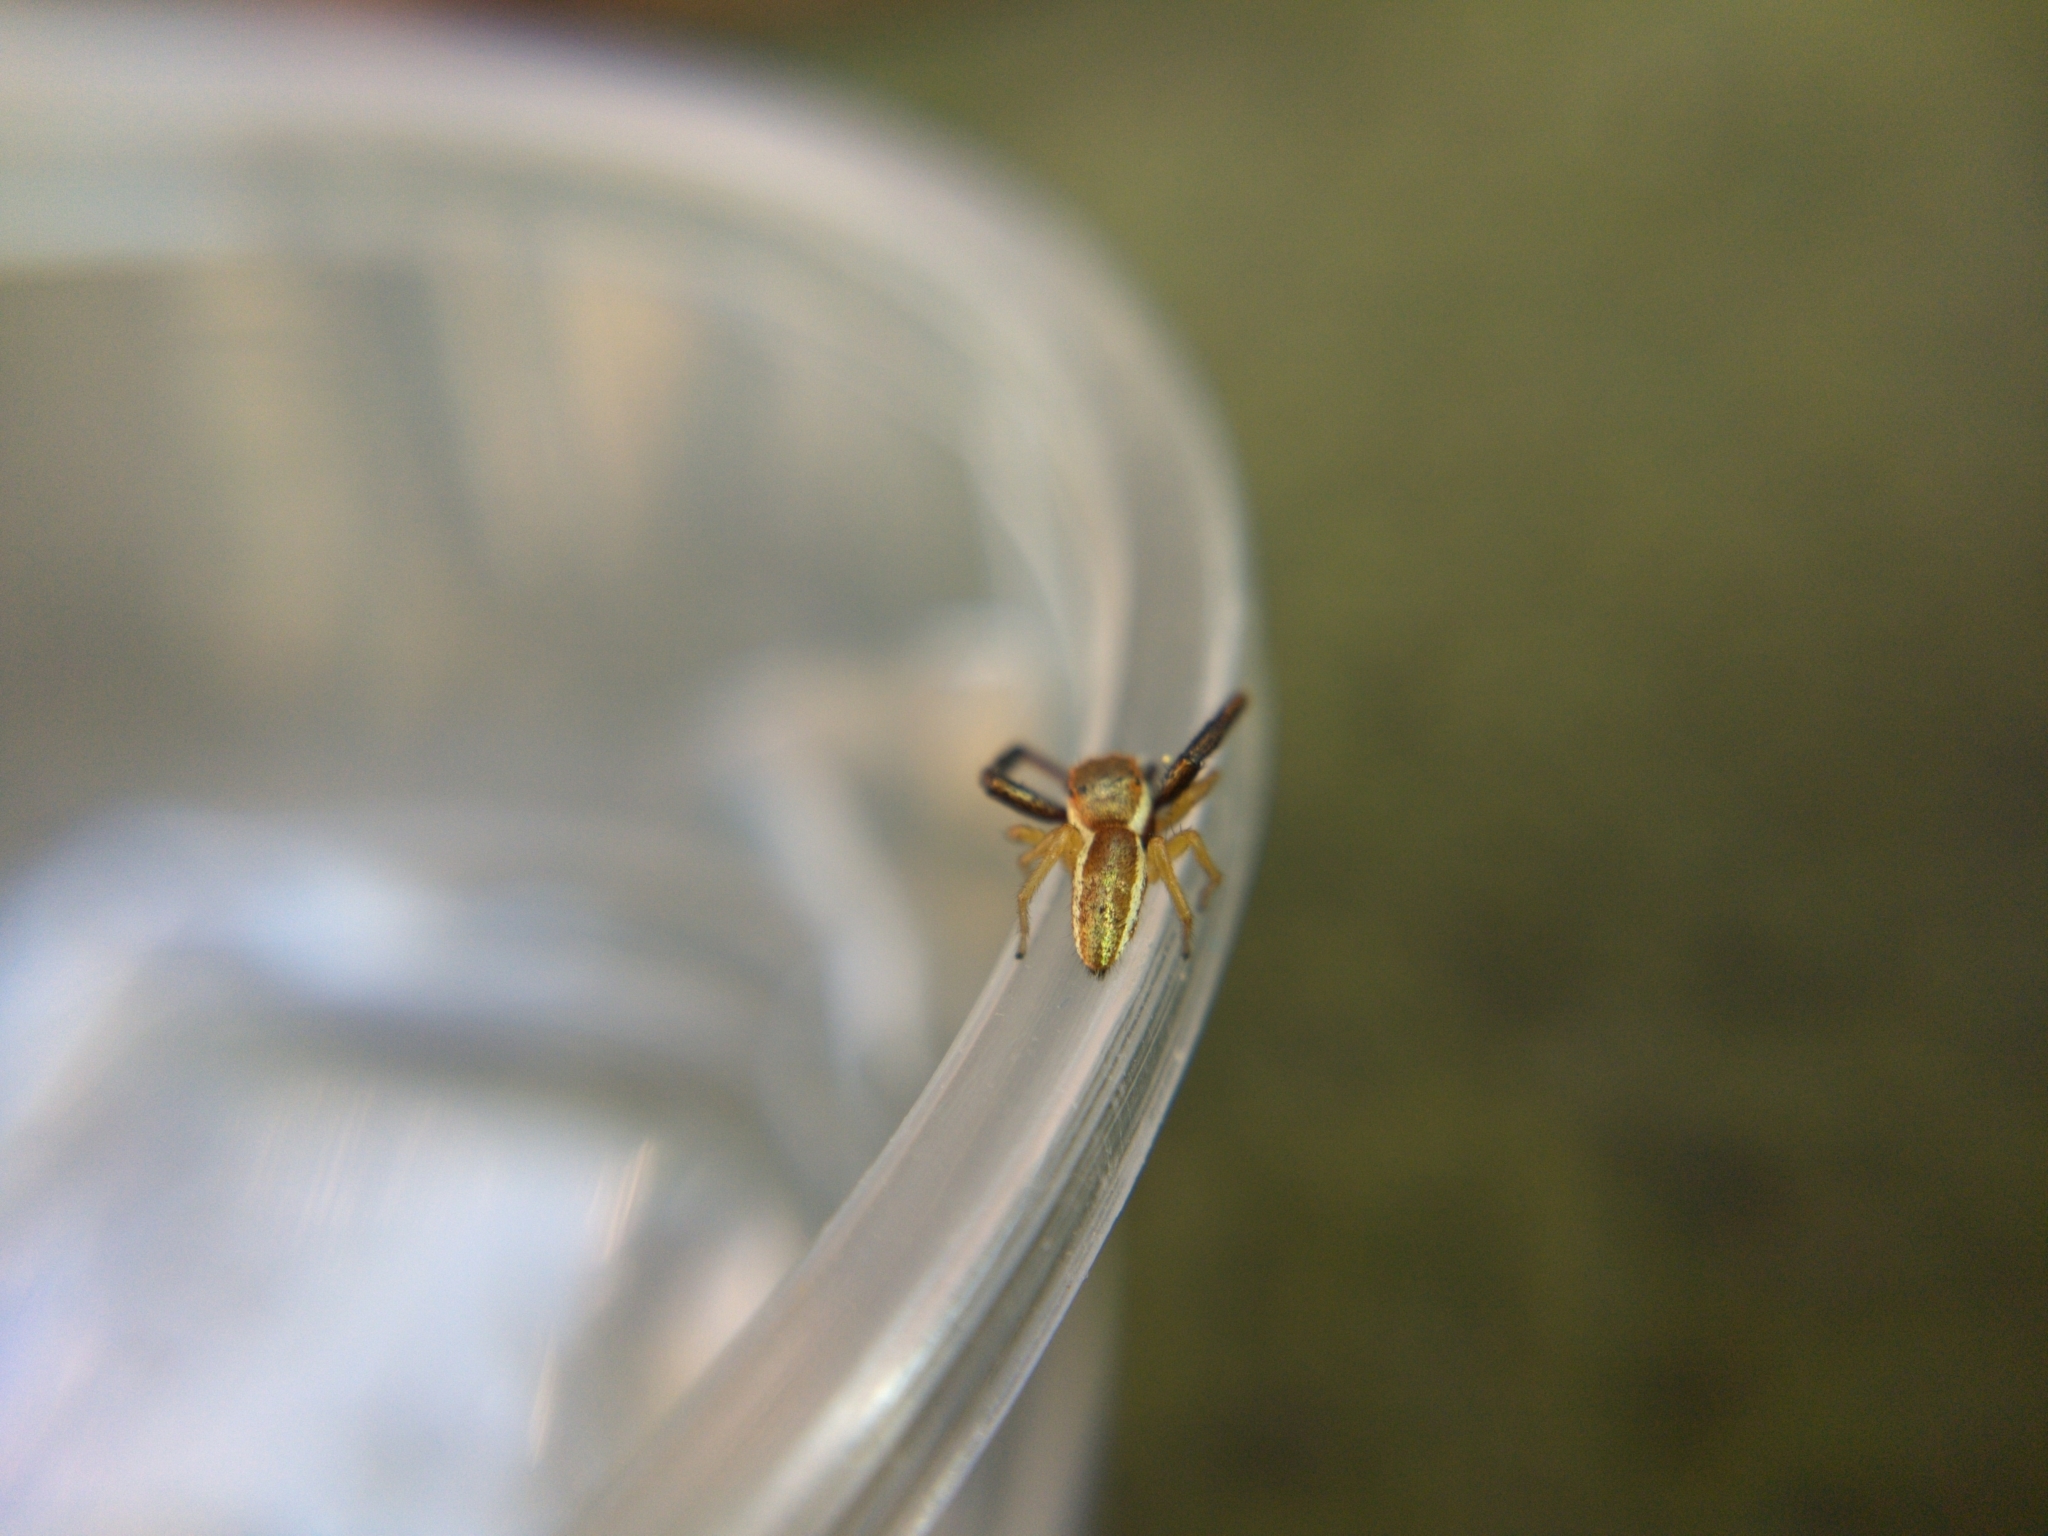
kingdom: Animalia
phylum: Arthropoda
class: Arachnida
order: Araneae
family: Salticidae
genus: Hentzia
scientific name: Hentzia palmarum
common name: Common hentz jumping spider
